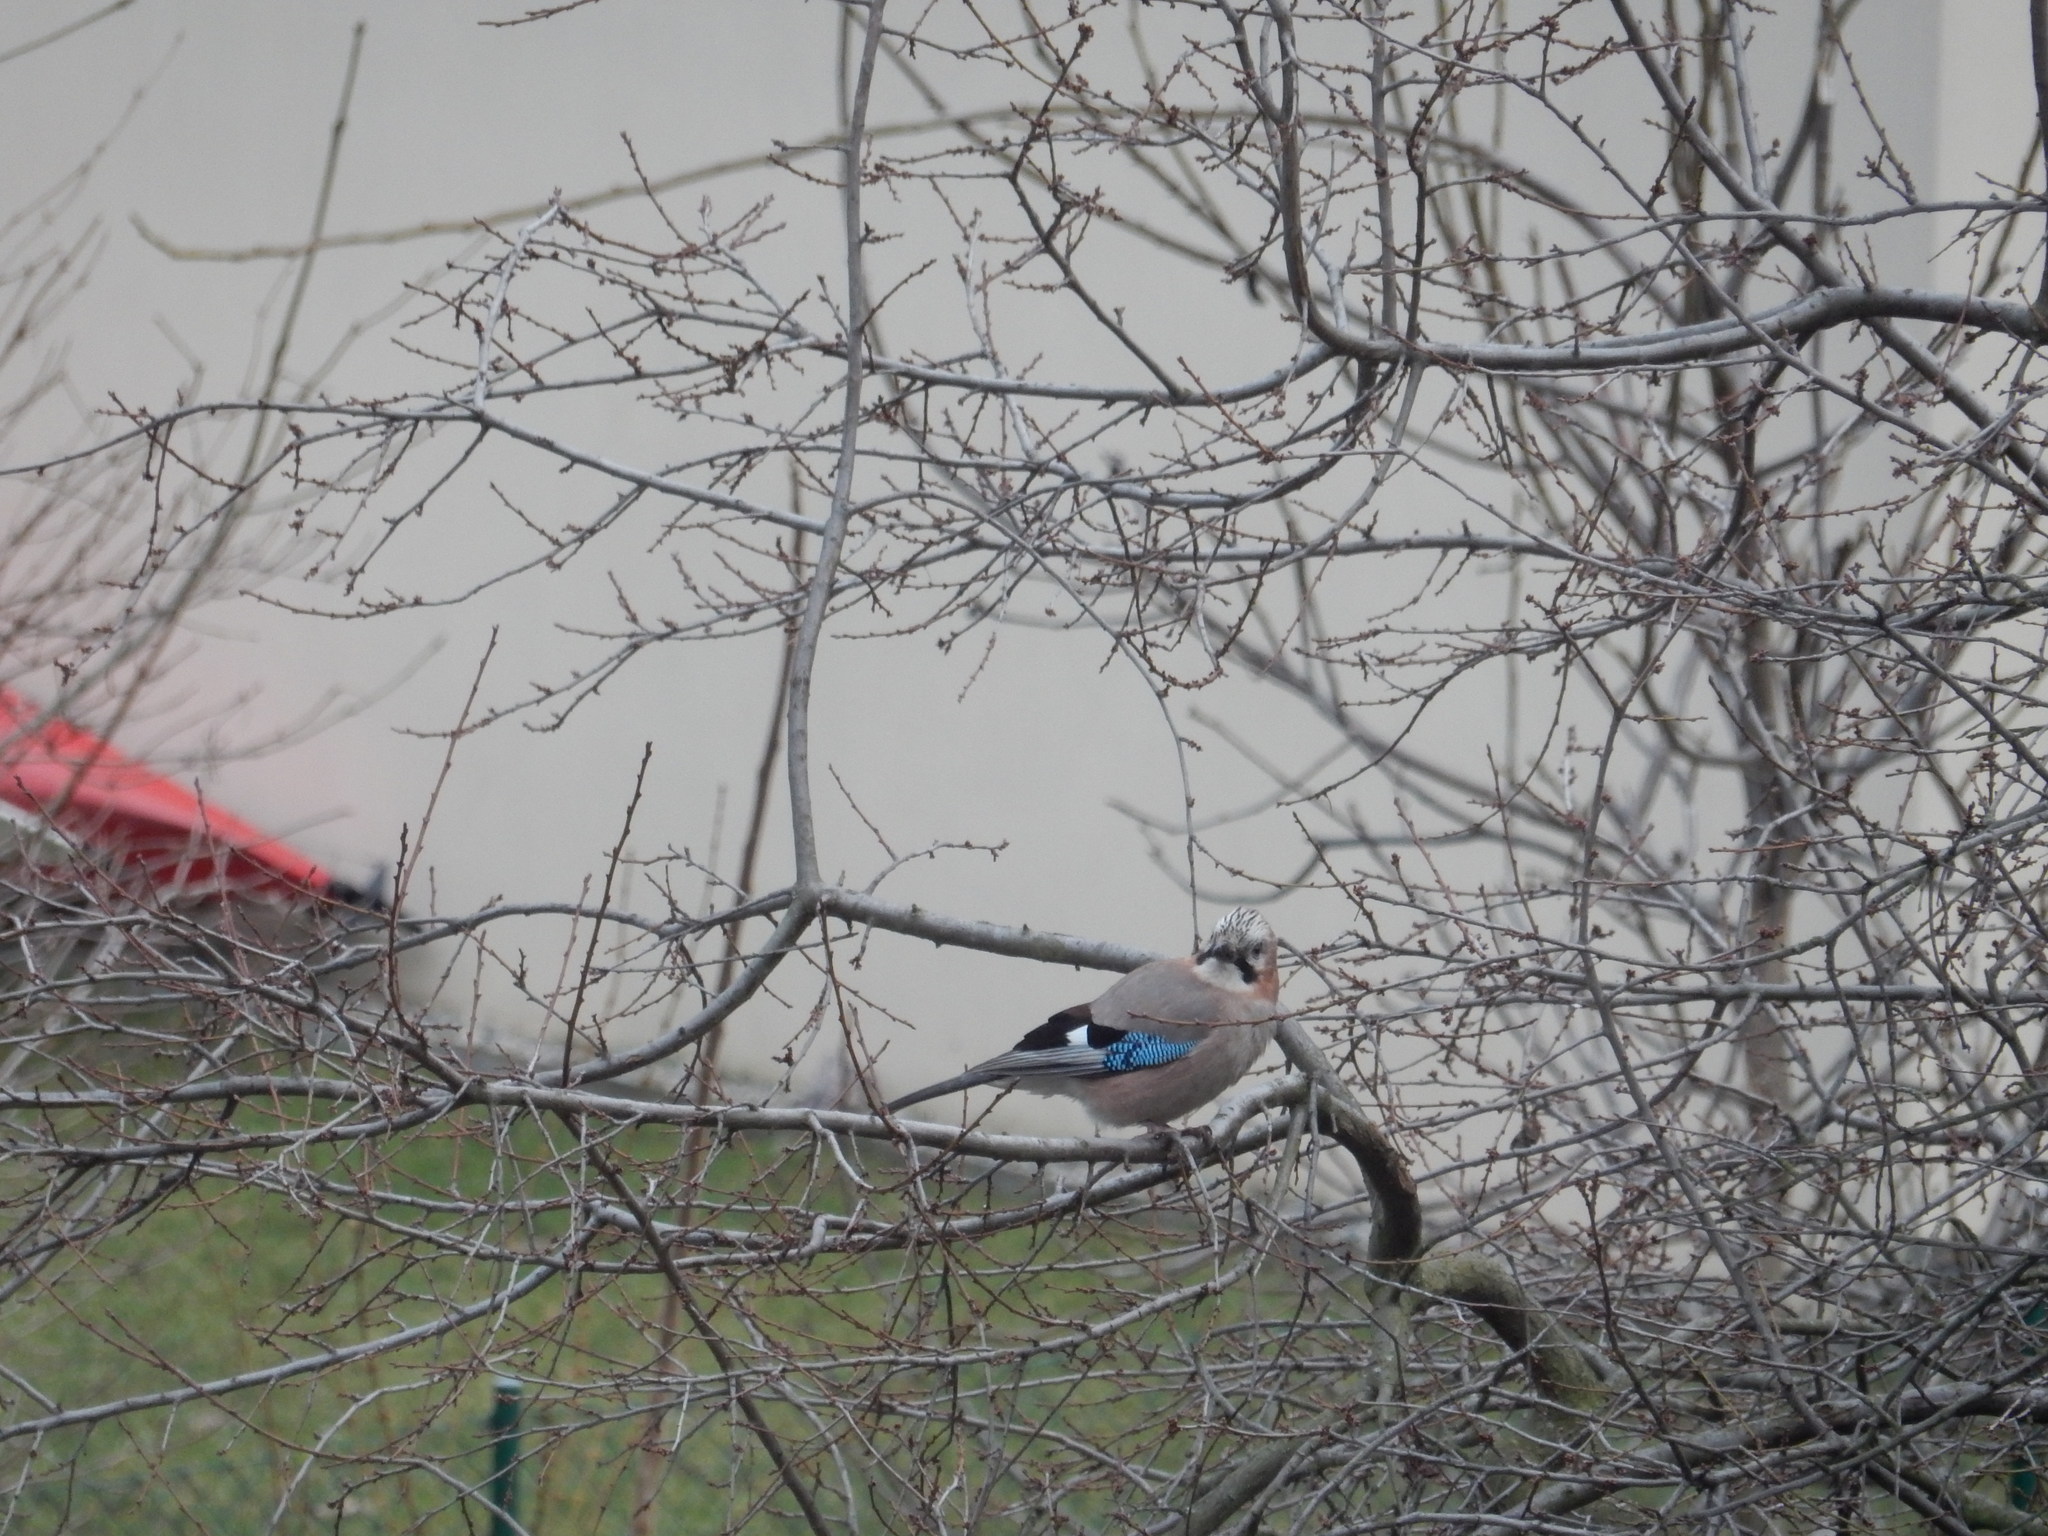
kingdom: Animalia
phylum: Chordata
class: Aves
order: Passeriformes
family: Corvidae
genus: Garrulus
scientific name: Garrulus glandarius
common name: Eurasian jay
